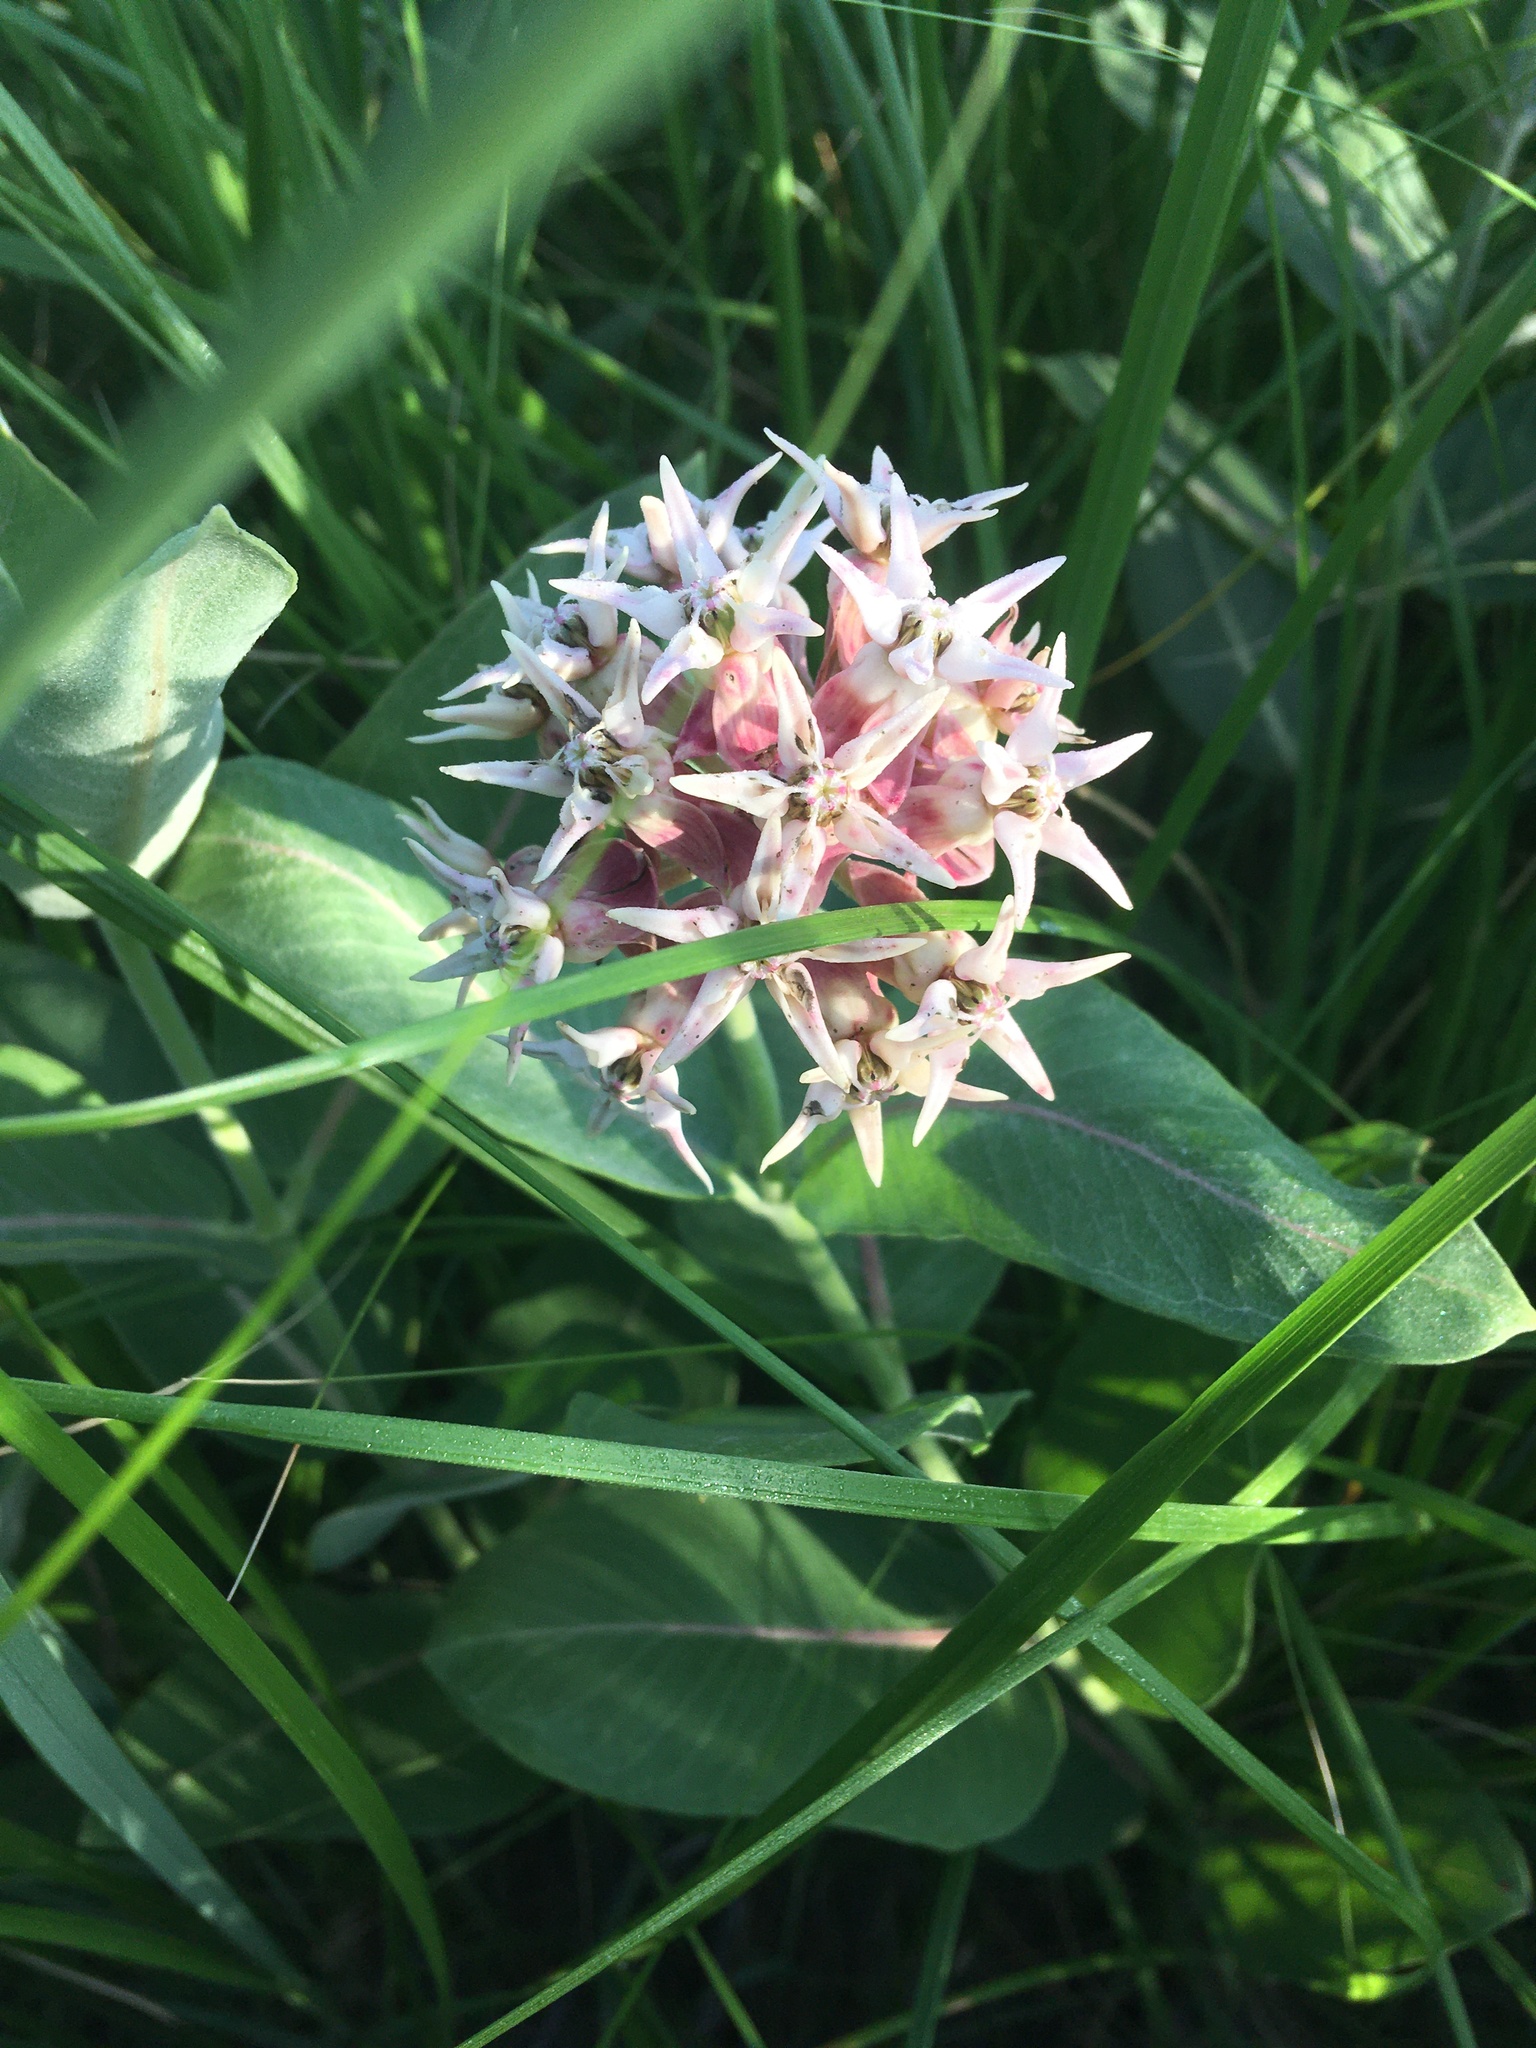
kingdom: Plantae
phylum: Tracheophyta
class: Magnoliopsida
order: Gentianales
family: Apocynaceae
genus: Asclepias
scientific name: Asclepias speciosa
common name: Showy milkweed
